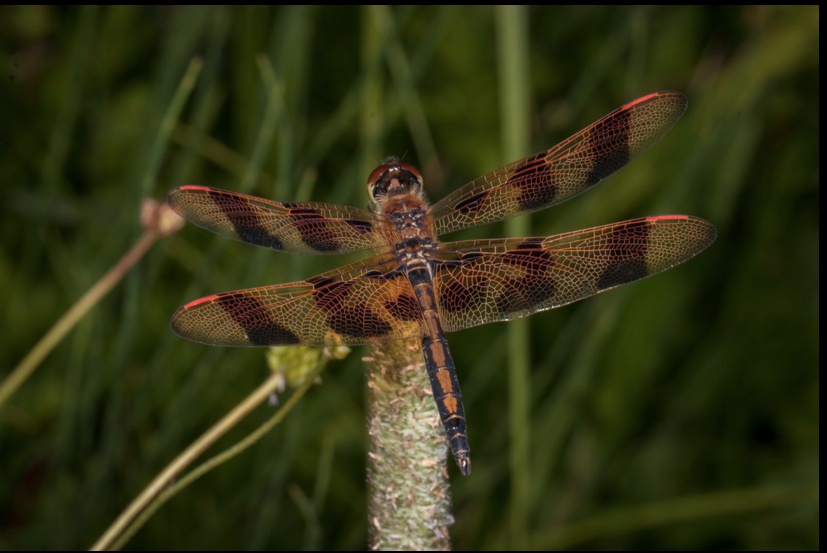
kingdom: Animalia
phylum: Arthropoda
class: Insecta
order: Odonata
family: Libellulidae
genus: Celithemis
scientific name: Celithemis eponina
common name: Halloween pennant
